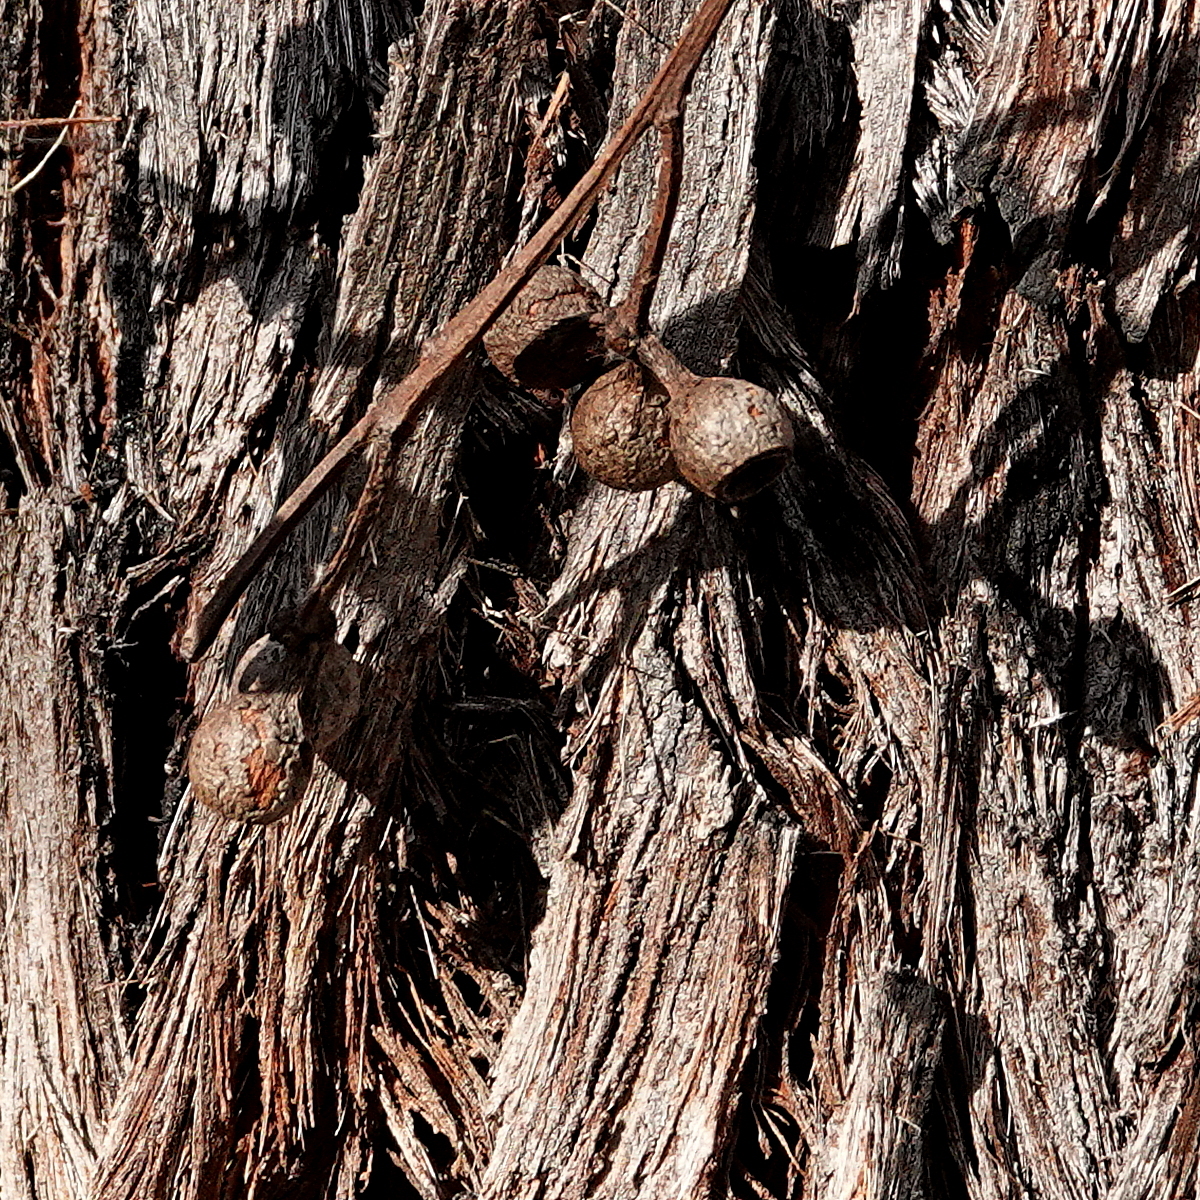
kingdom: Plantae
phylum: Tracheophyta
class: Magnoliopsida
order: Myrtales
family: Myrtaceae
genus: Eucalyptus
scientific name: Eucalyptus pilularis
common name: Blackbutt
